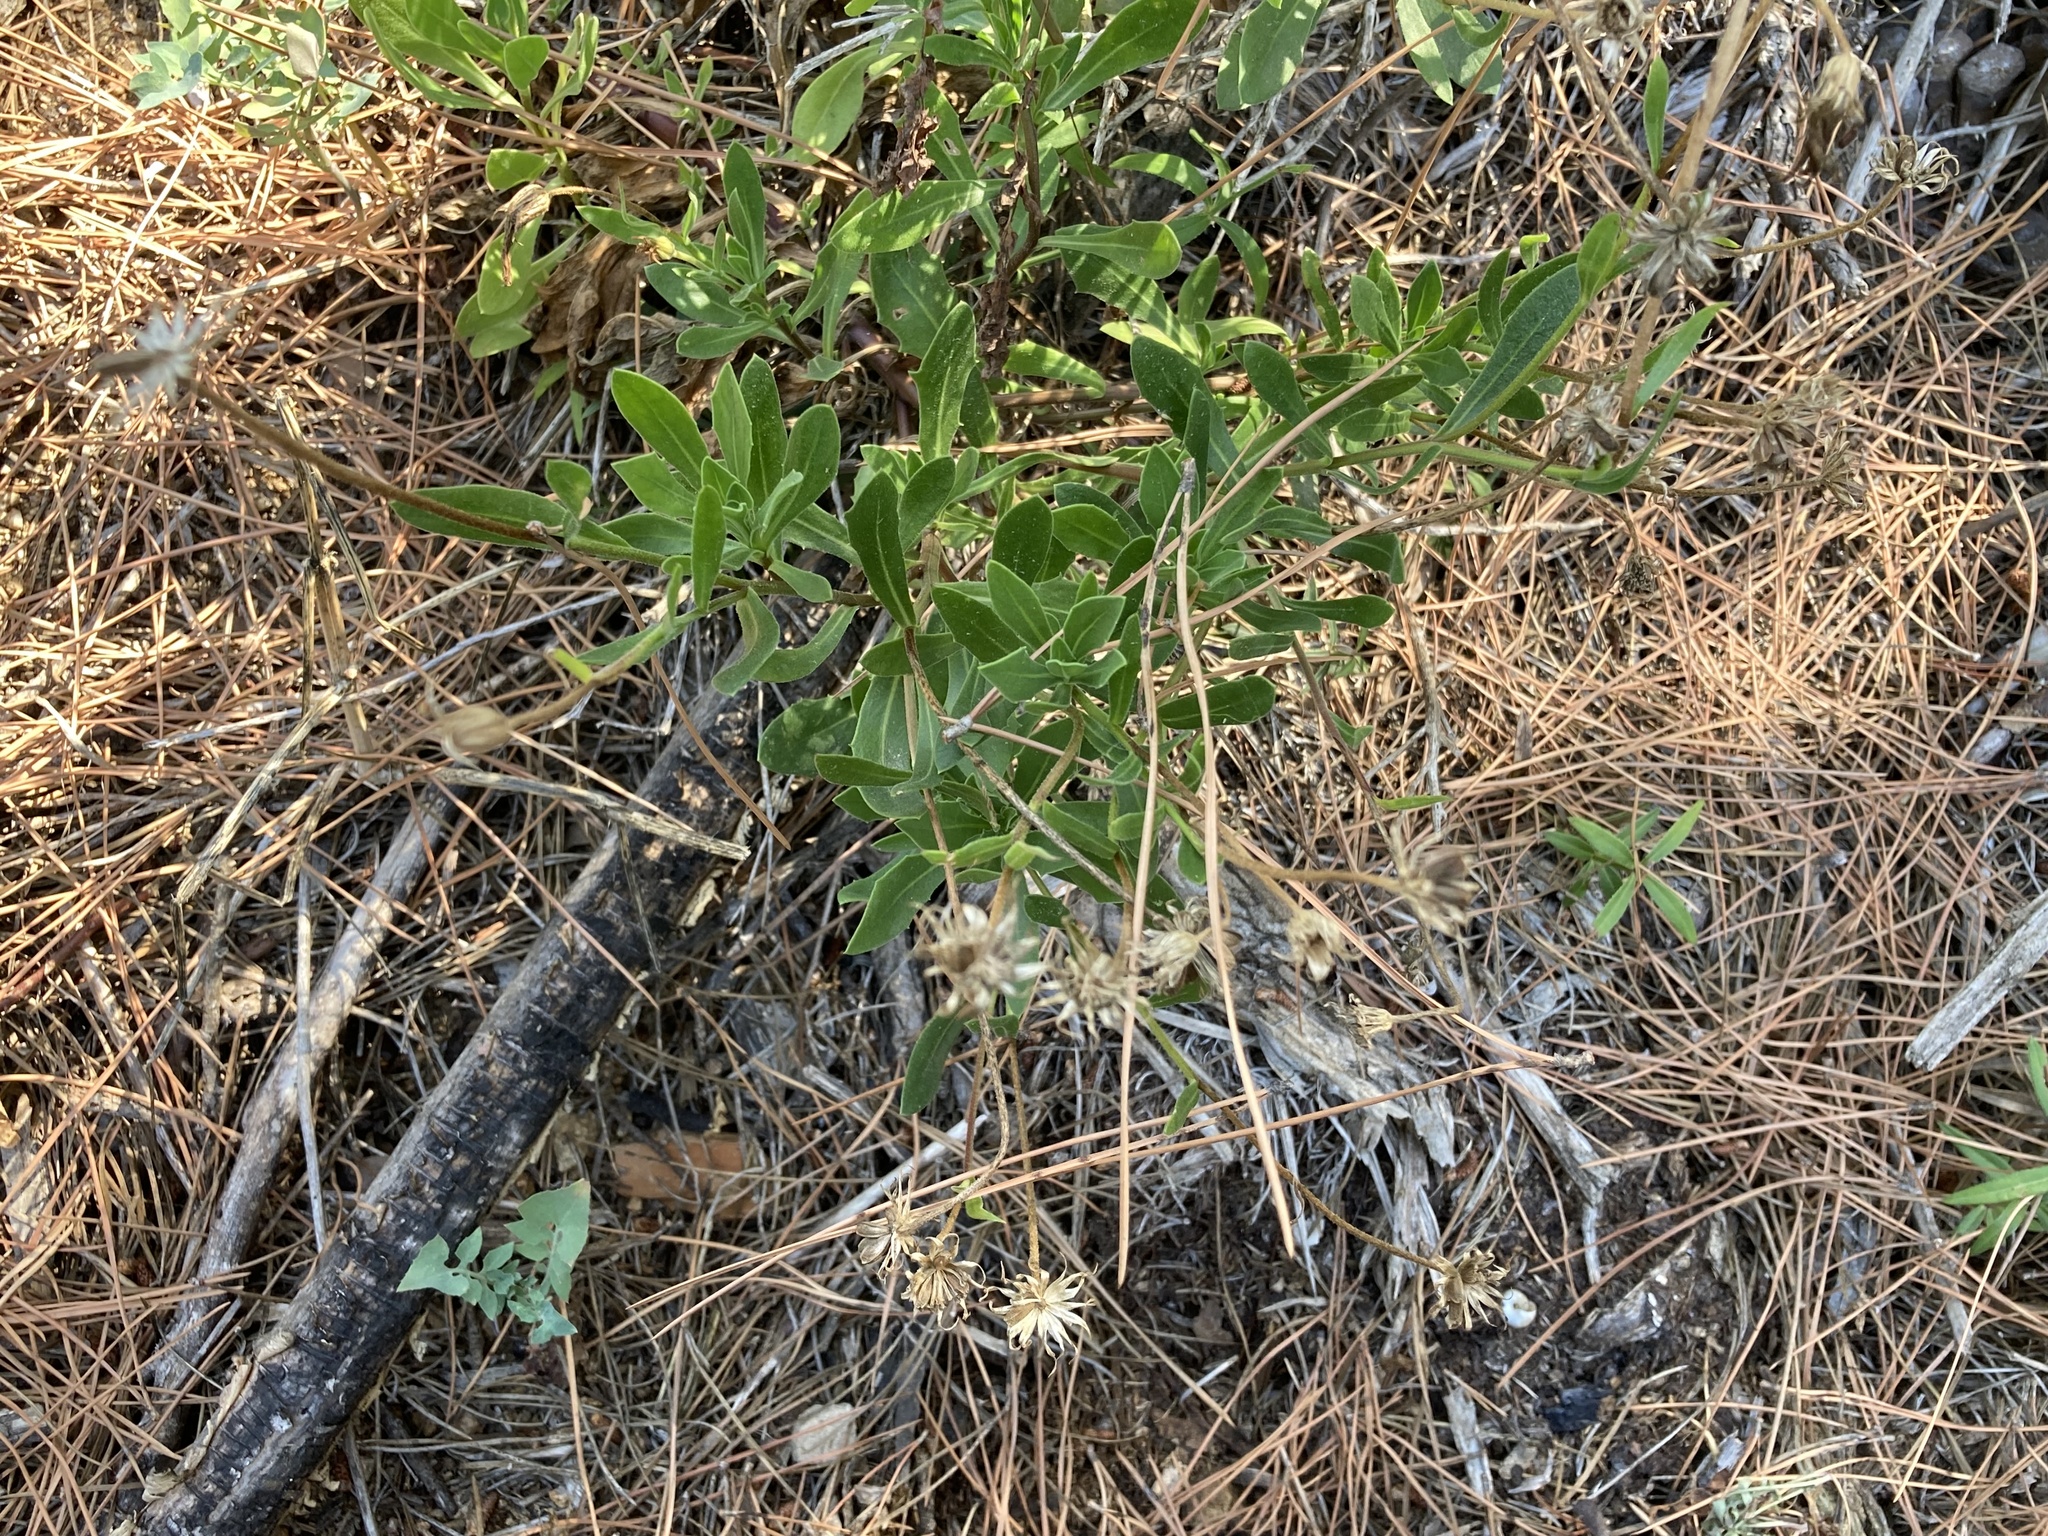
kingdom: Plantae
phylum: Tracheophyta
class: Magnoliopsida
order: Asterales
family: Asteraceae
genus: Dimorphotheca
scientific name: Dimorphotheca ecklonis
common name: Vanstaden's river daisy
